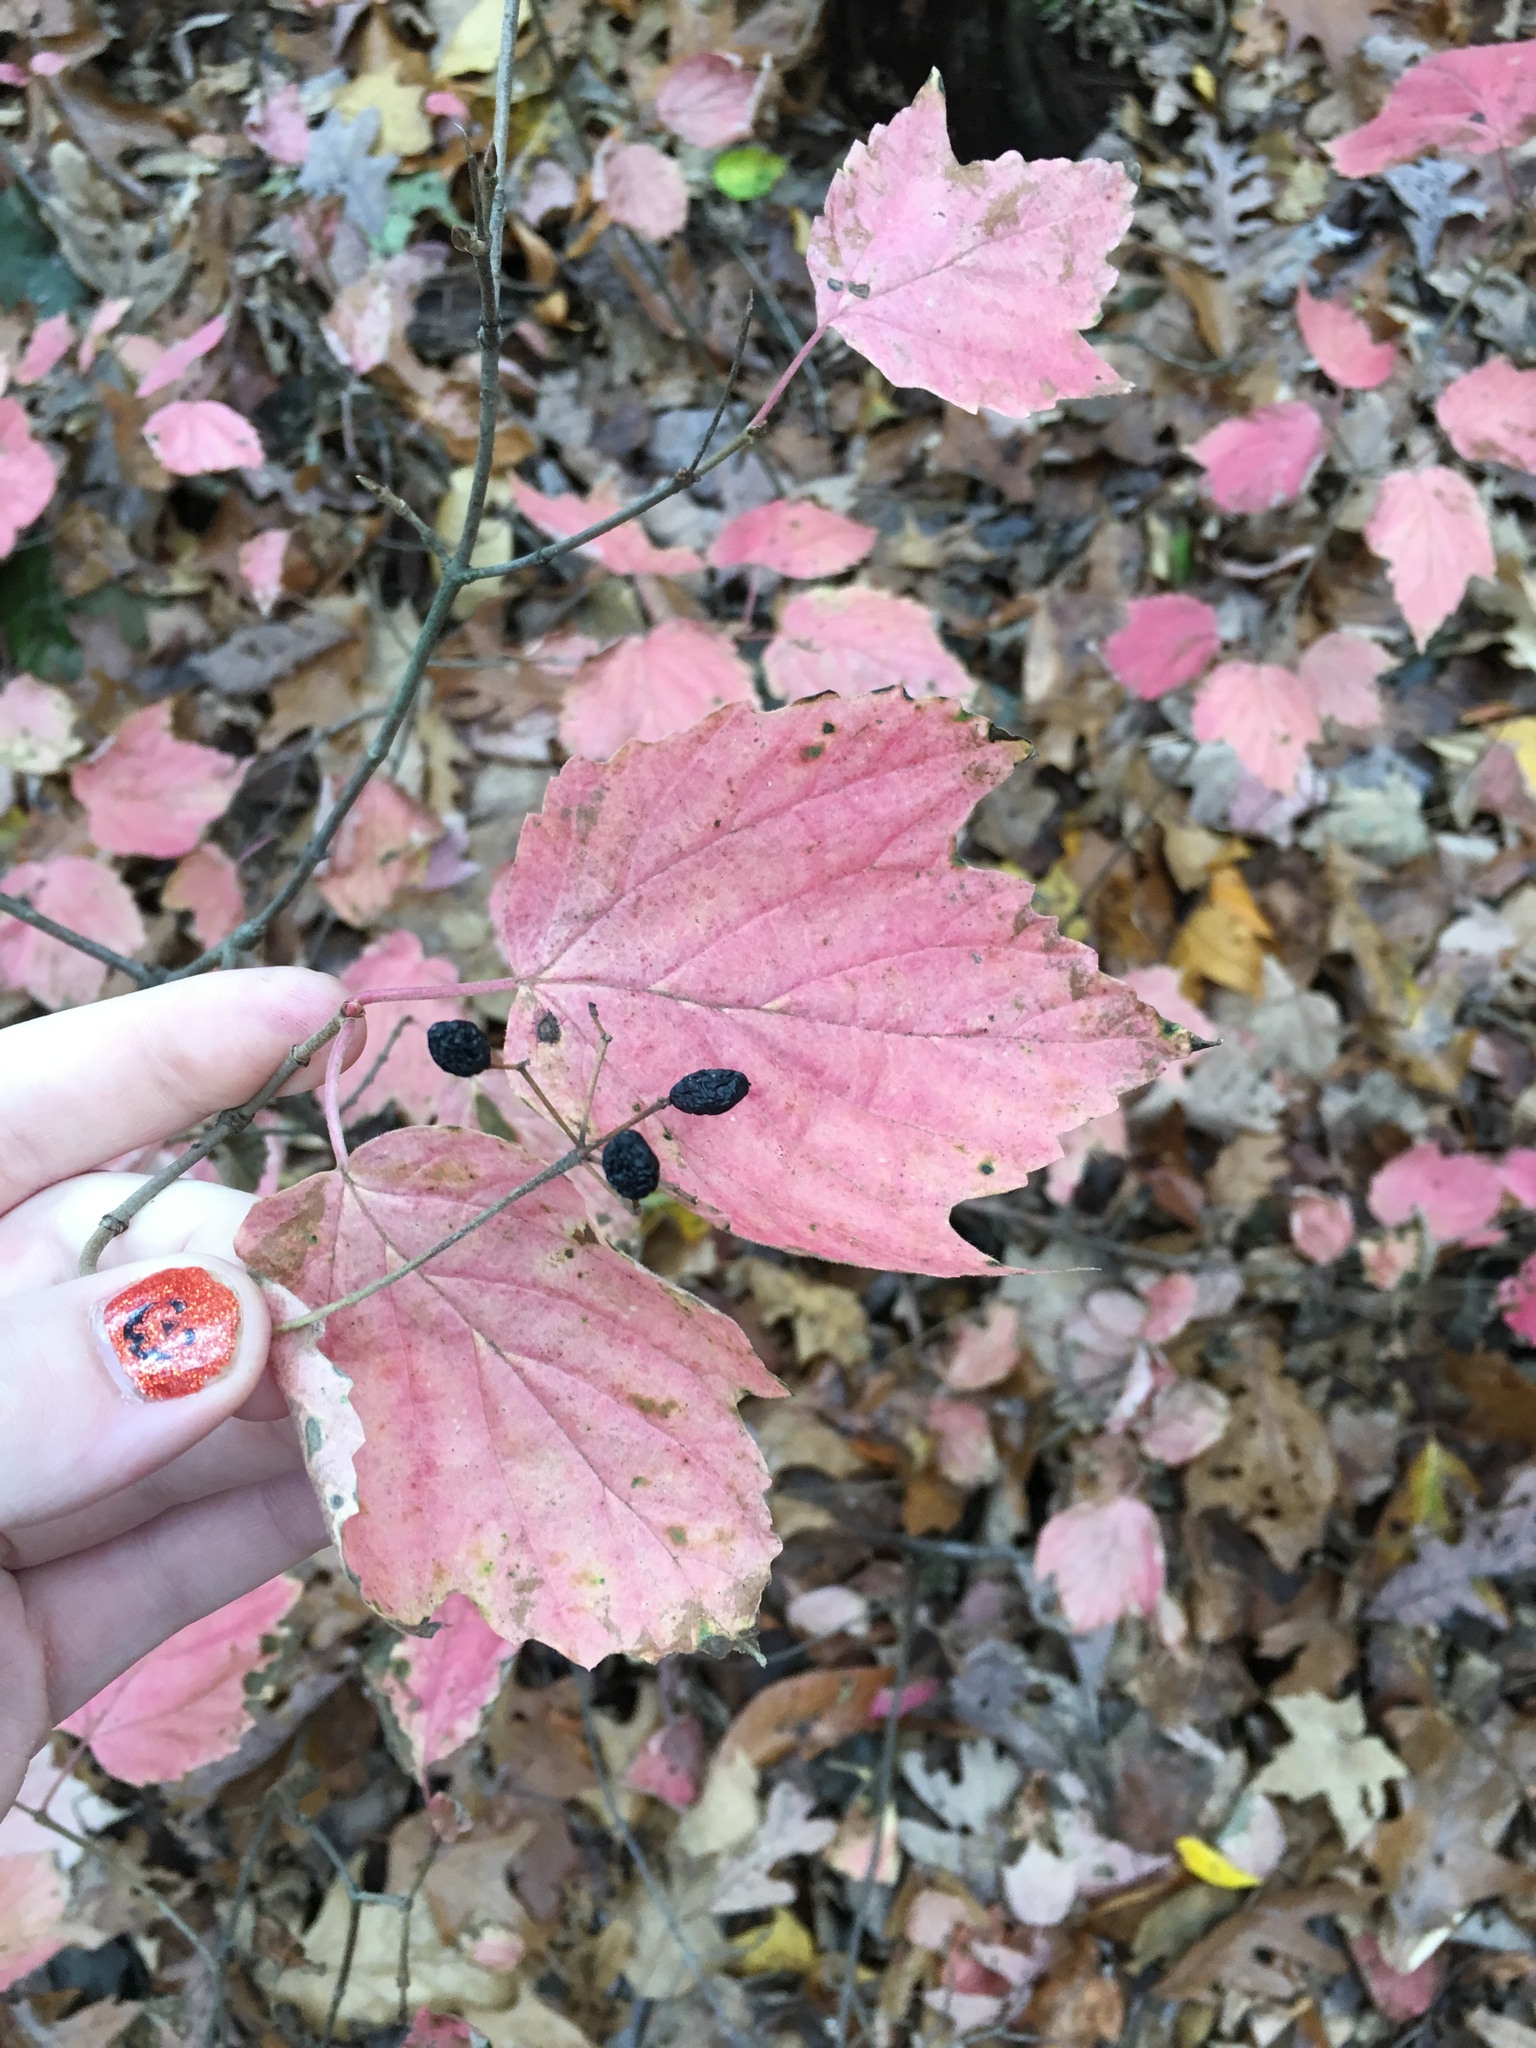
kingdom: Plantae
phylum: Tracheophyta
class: Magnoliopsida
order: Dipsacales
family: Viburnaceae
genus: Viburnum
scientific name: Viburnum acerifolium
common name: Dockmackie
